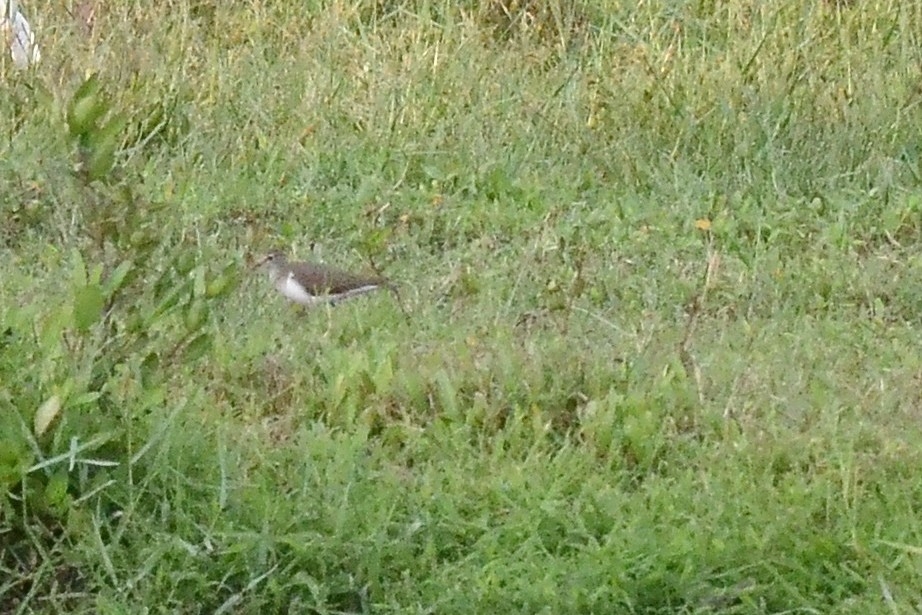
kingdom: Animalia
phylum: Chordata
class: Aves
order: Charadriiformes
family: Scolopacidae
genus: Actitis
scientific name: Actitis hypoleucos
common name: Common sandpiper
